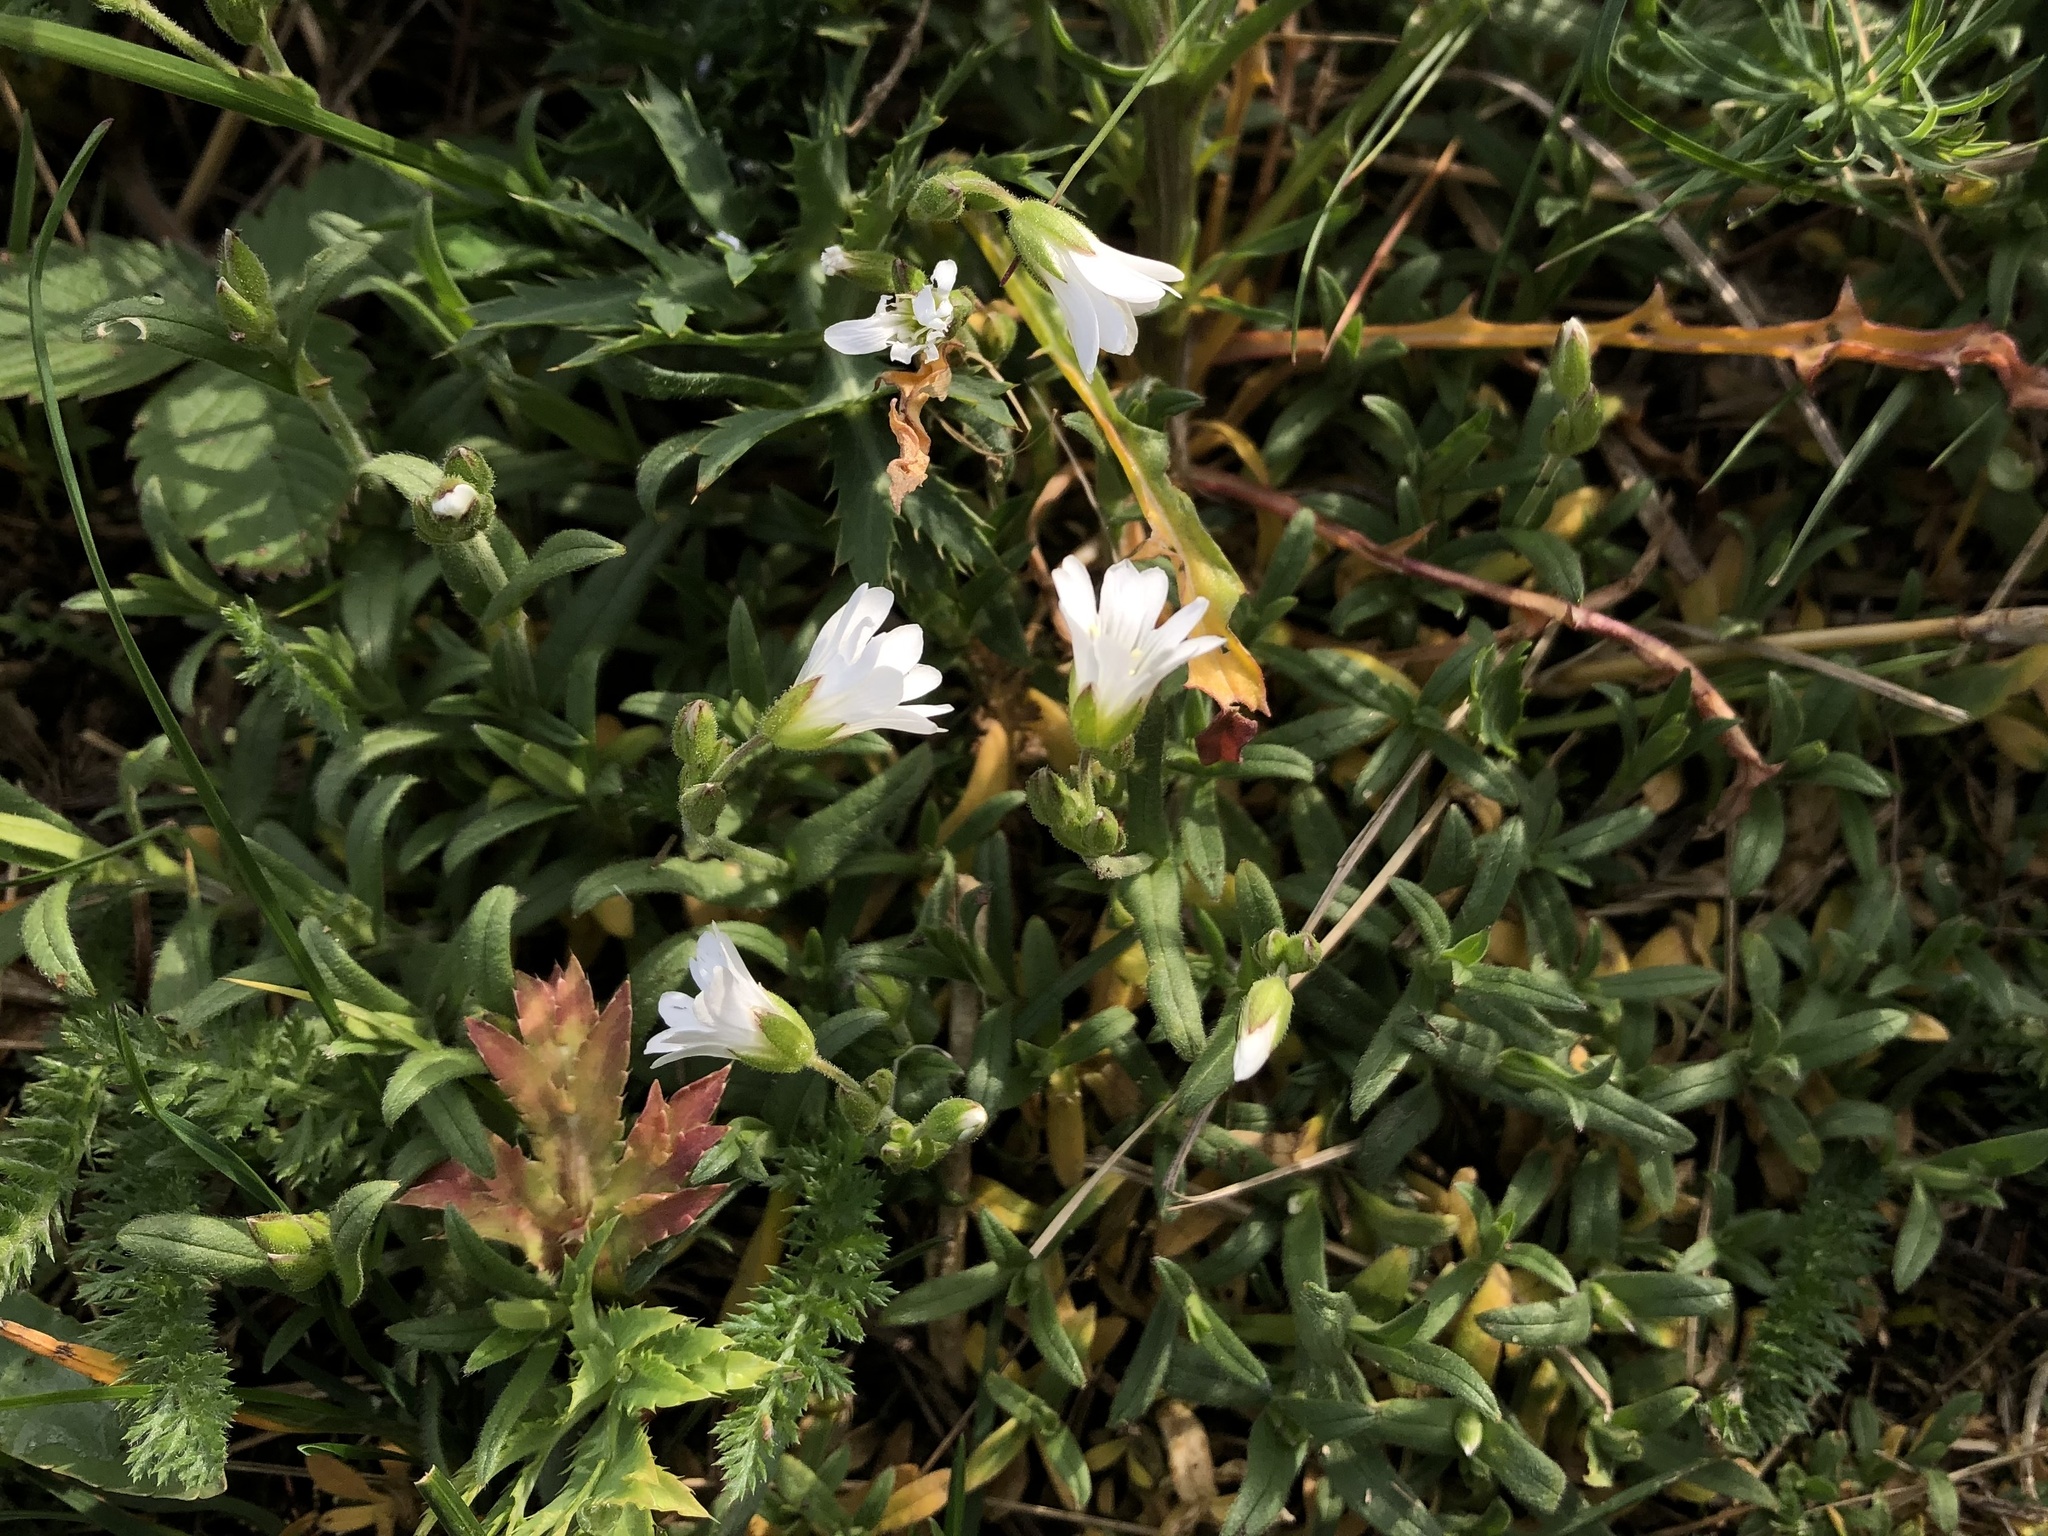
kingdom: Plantae
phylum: Tracheophyta
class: Magnoliopsida
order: Caryophyllales
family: Caryophyllaceae
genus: Cerastium
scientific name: Cerastium arvense
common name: Field mouse-ear
